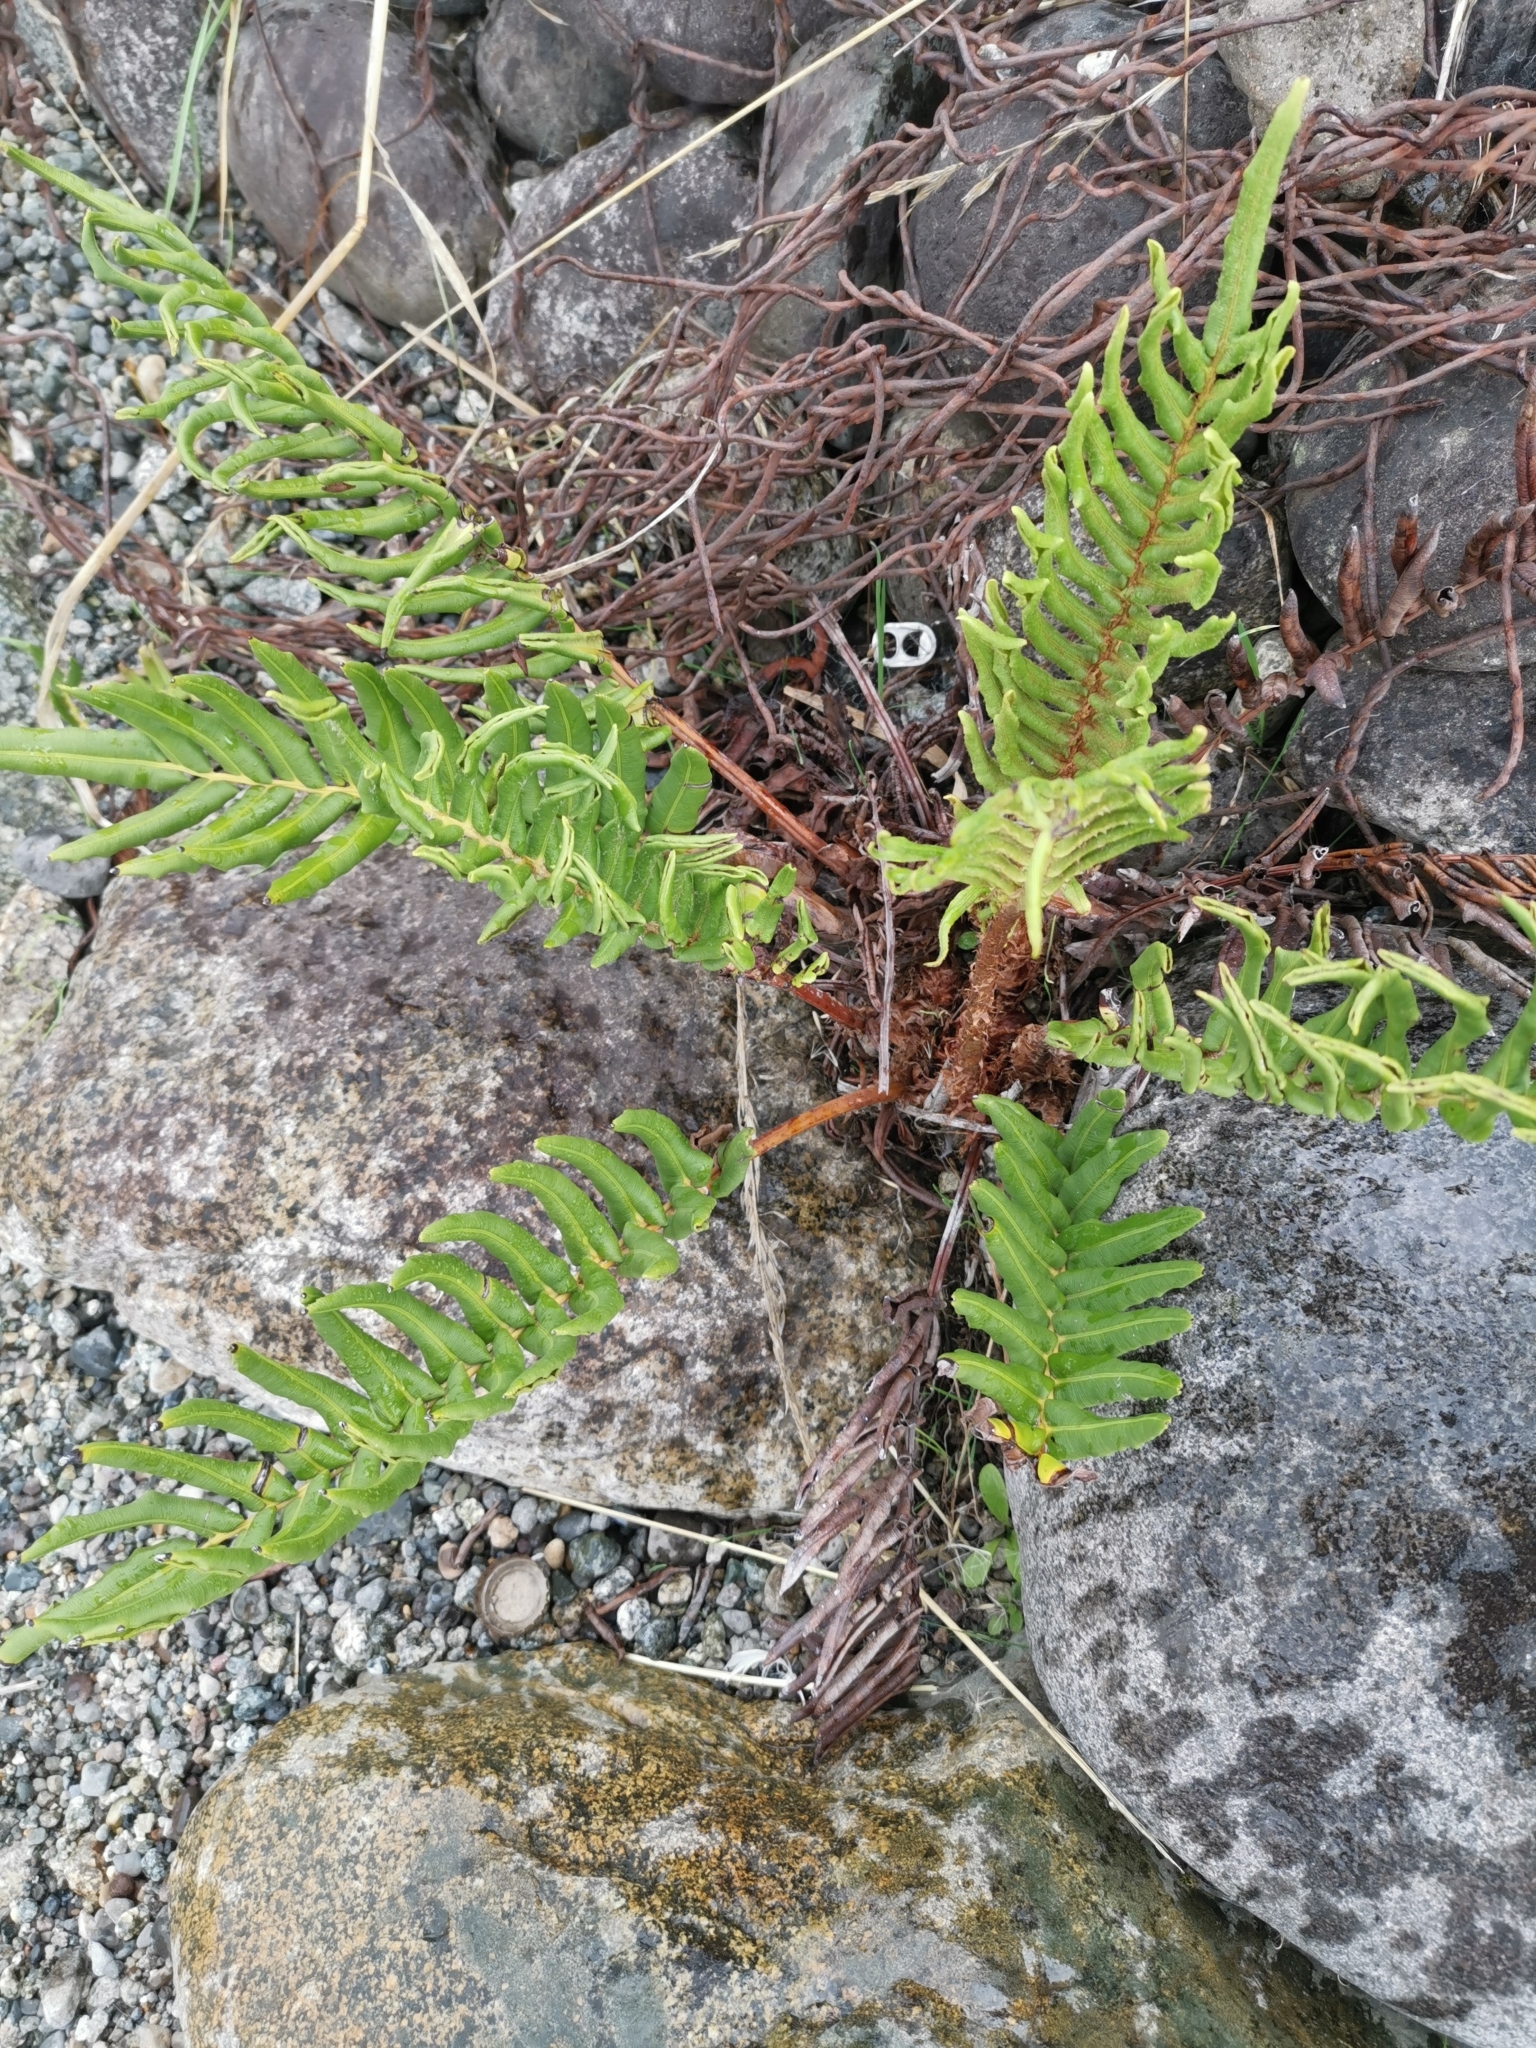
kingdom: Plantae
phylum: Tracheophyta
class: Polypodiopsida
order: Polypodiales
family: Blechnaceae
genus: Parablechnum
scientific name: Parablechnum chilense
